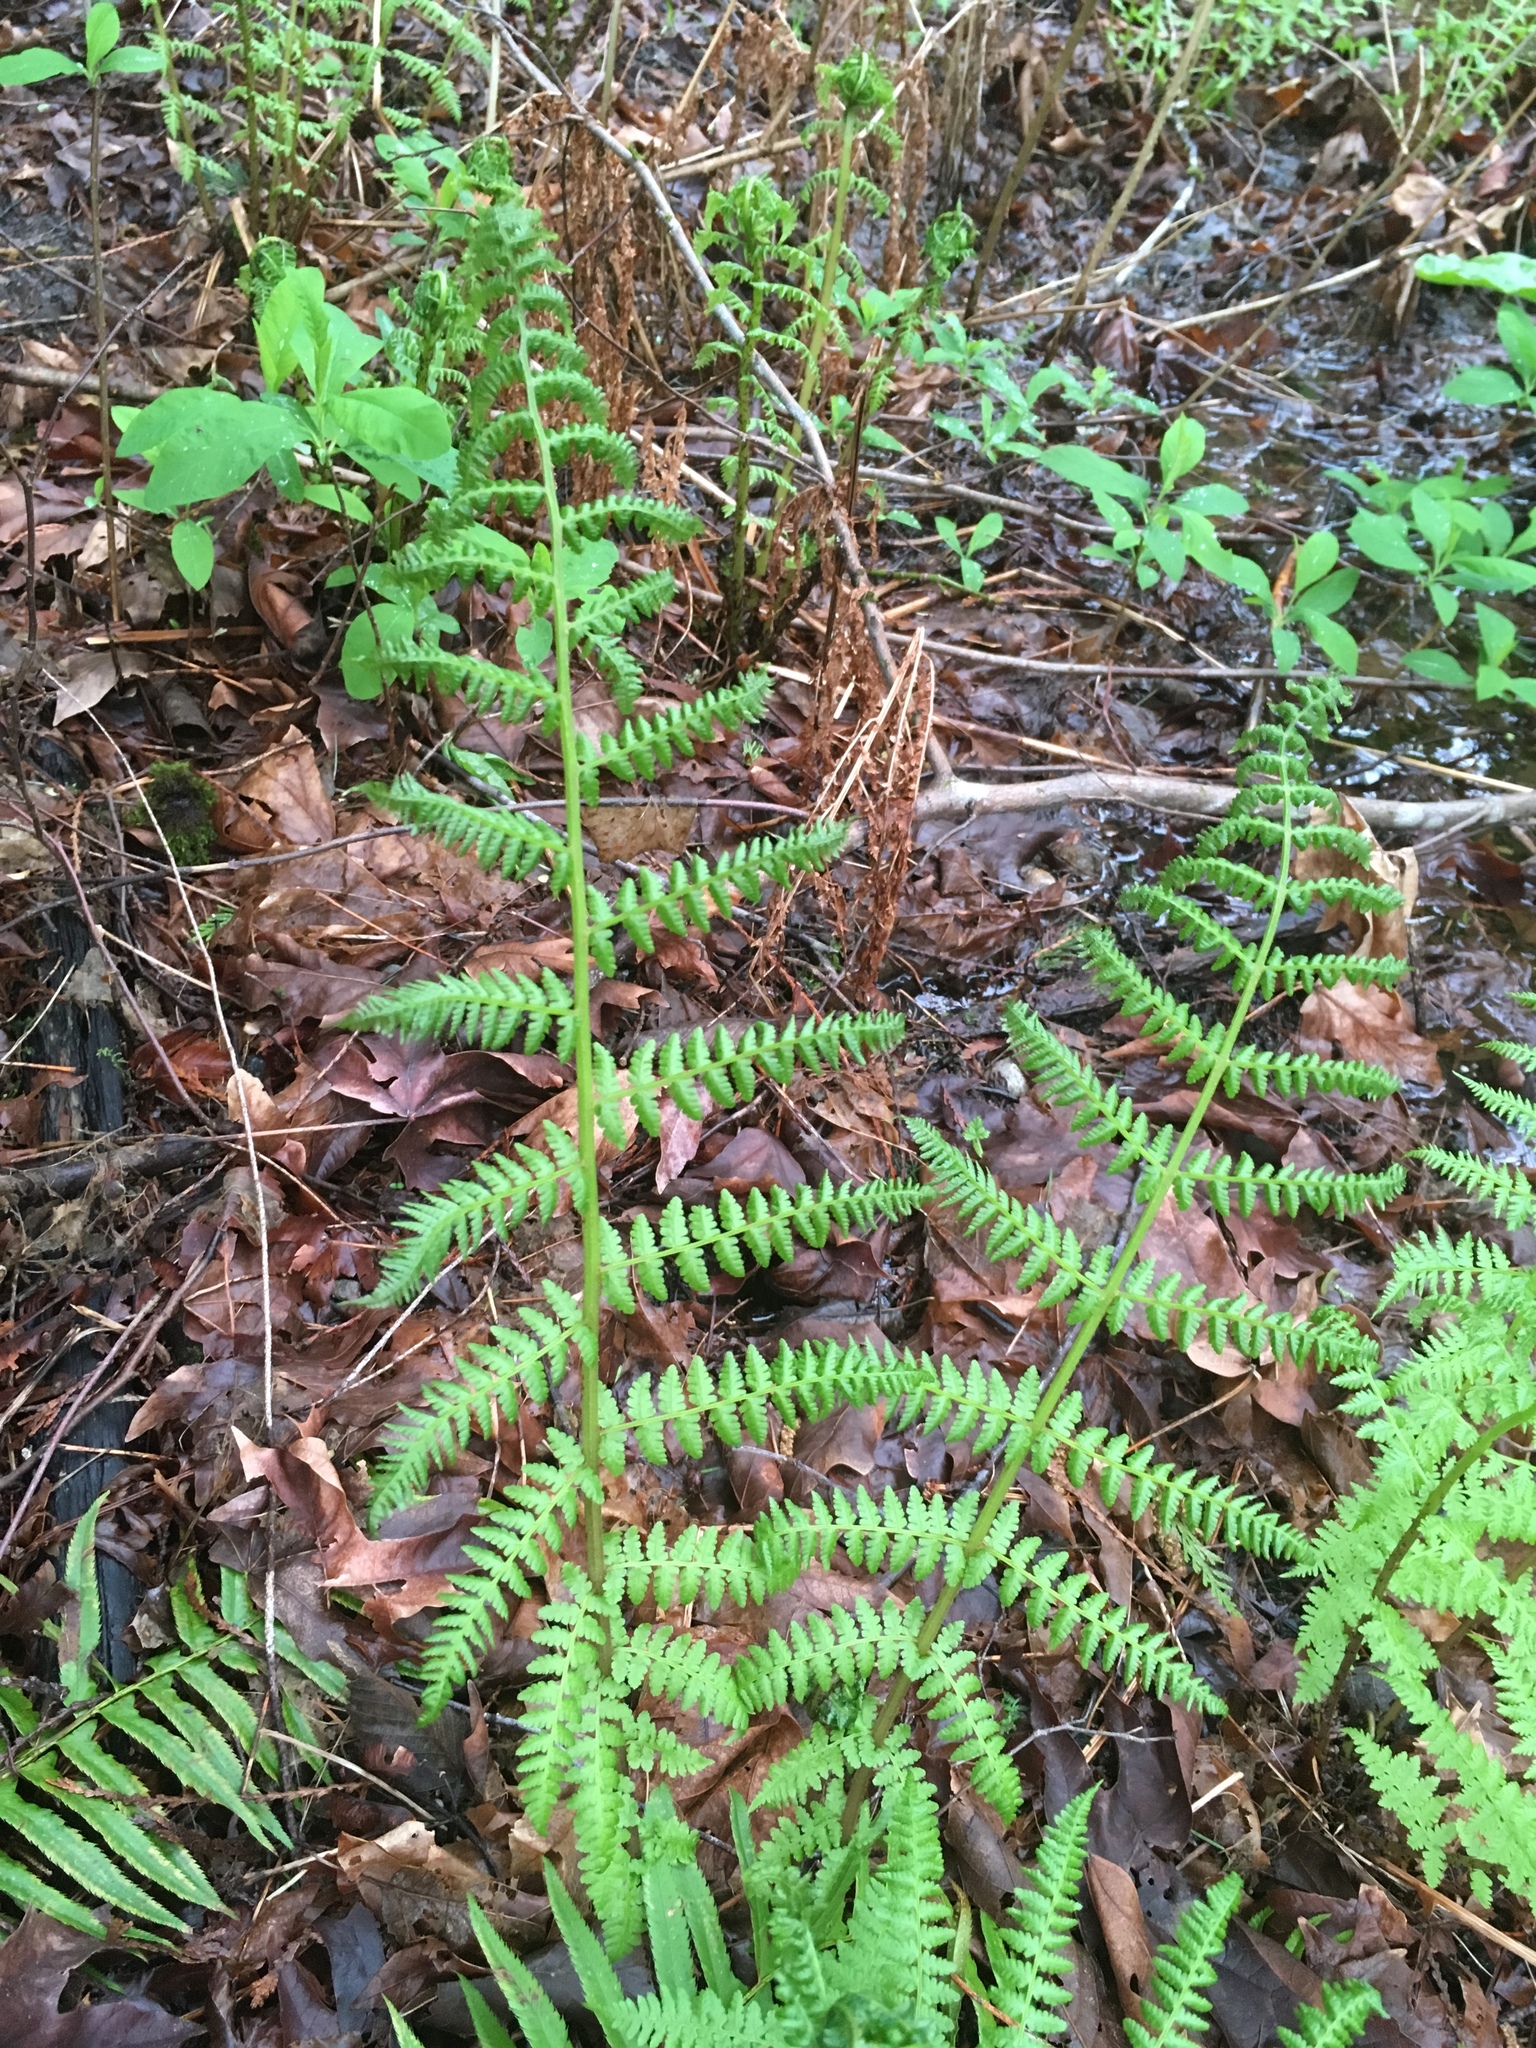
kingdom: Plantae
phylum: Tracheophyta
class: Polypodiopsida
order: Polypodiales
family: Athyriaceae
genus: Athyrium
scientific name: Athyrium filix-femina
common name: Lady fern
